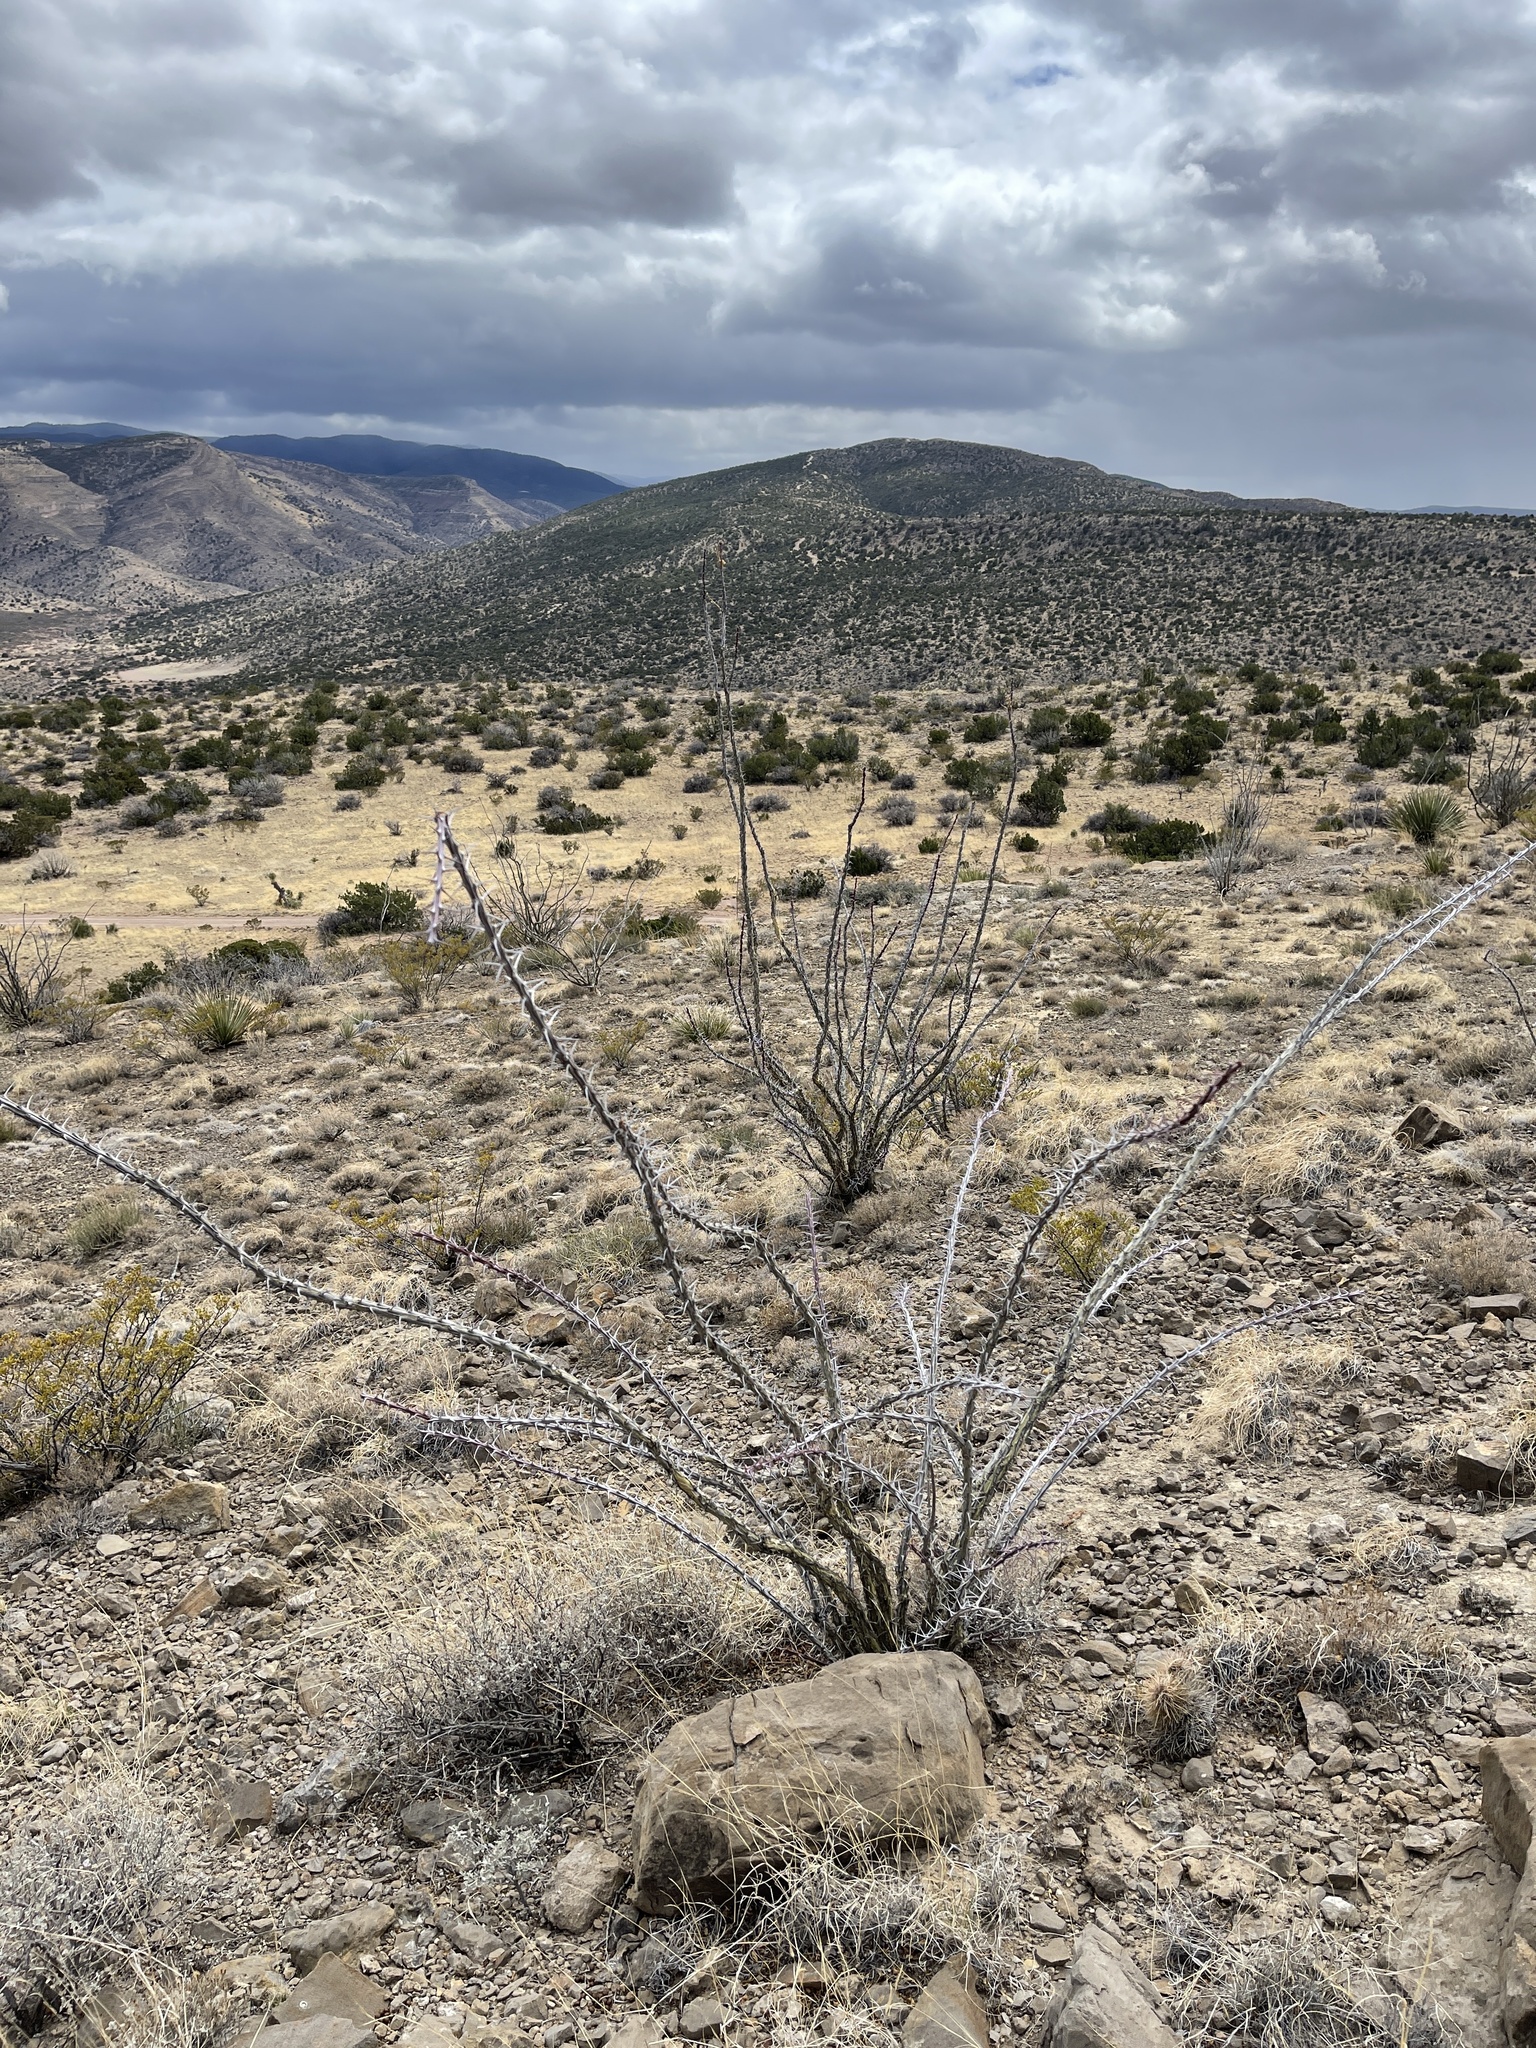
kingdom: Plantae
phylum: Tracheophyta
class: Magnoliopsida
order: Ericales
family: Fouquieriaceae
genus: Fouquieria
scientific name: Fouquieria splendens
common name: Vine-cactus
